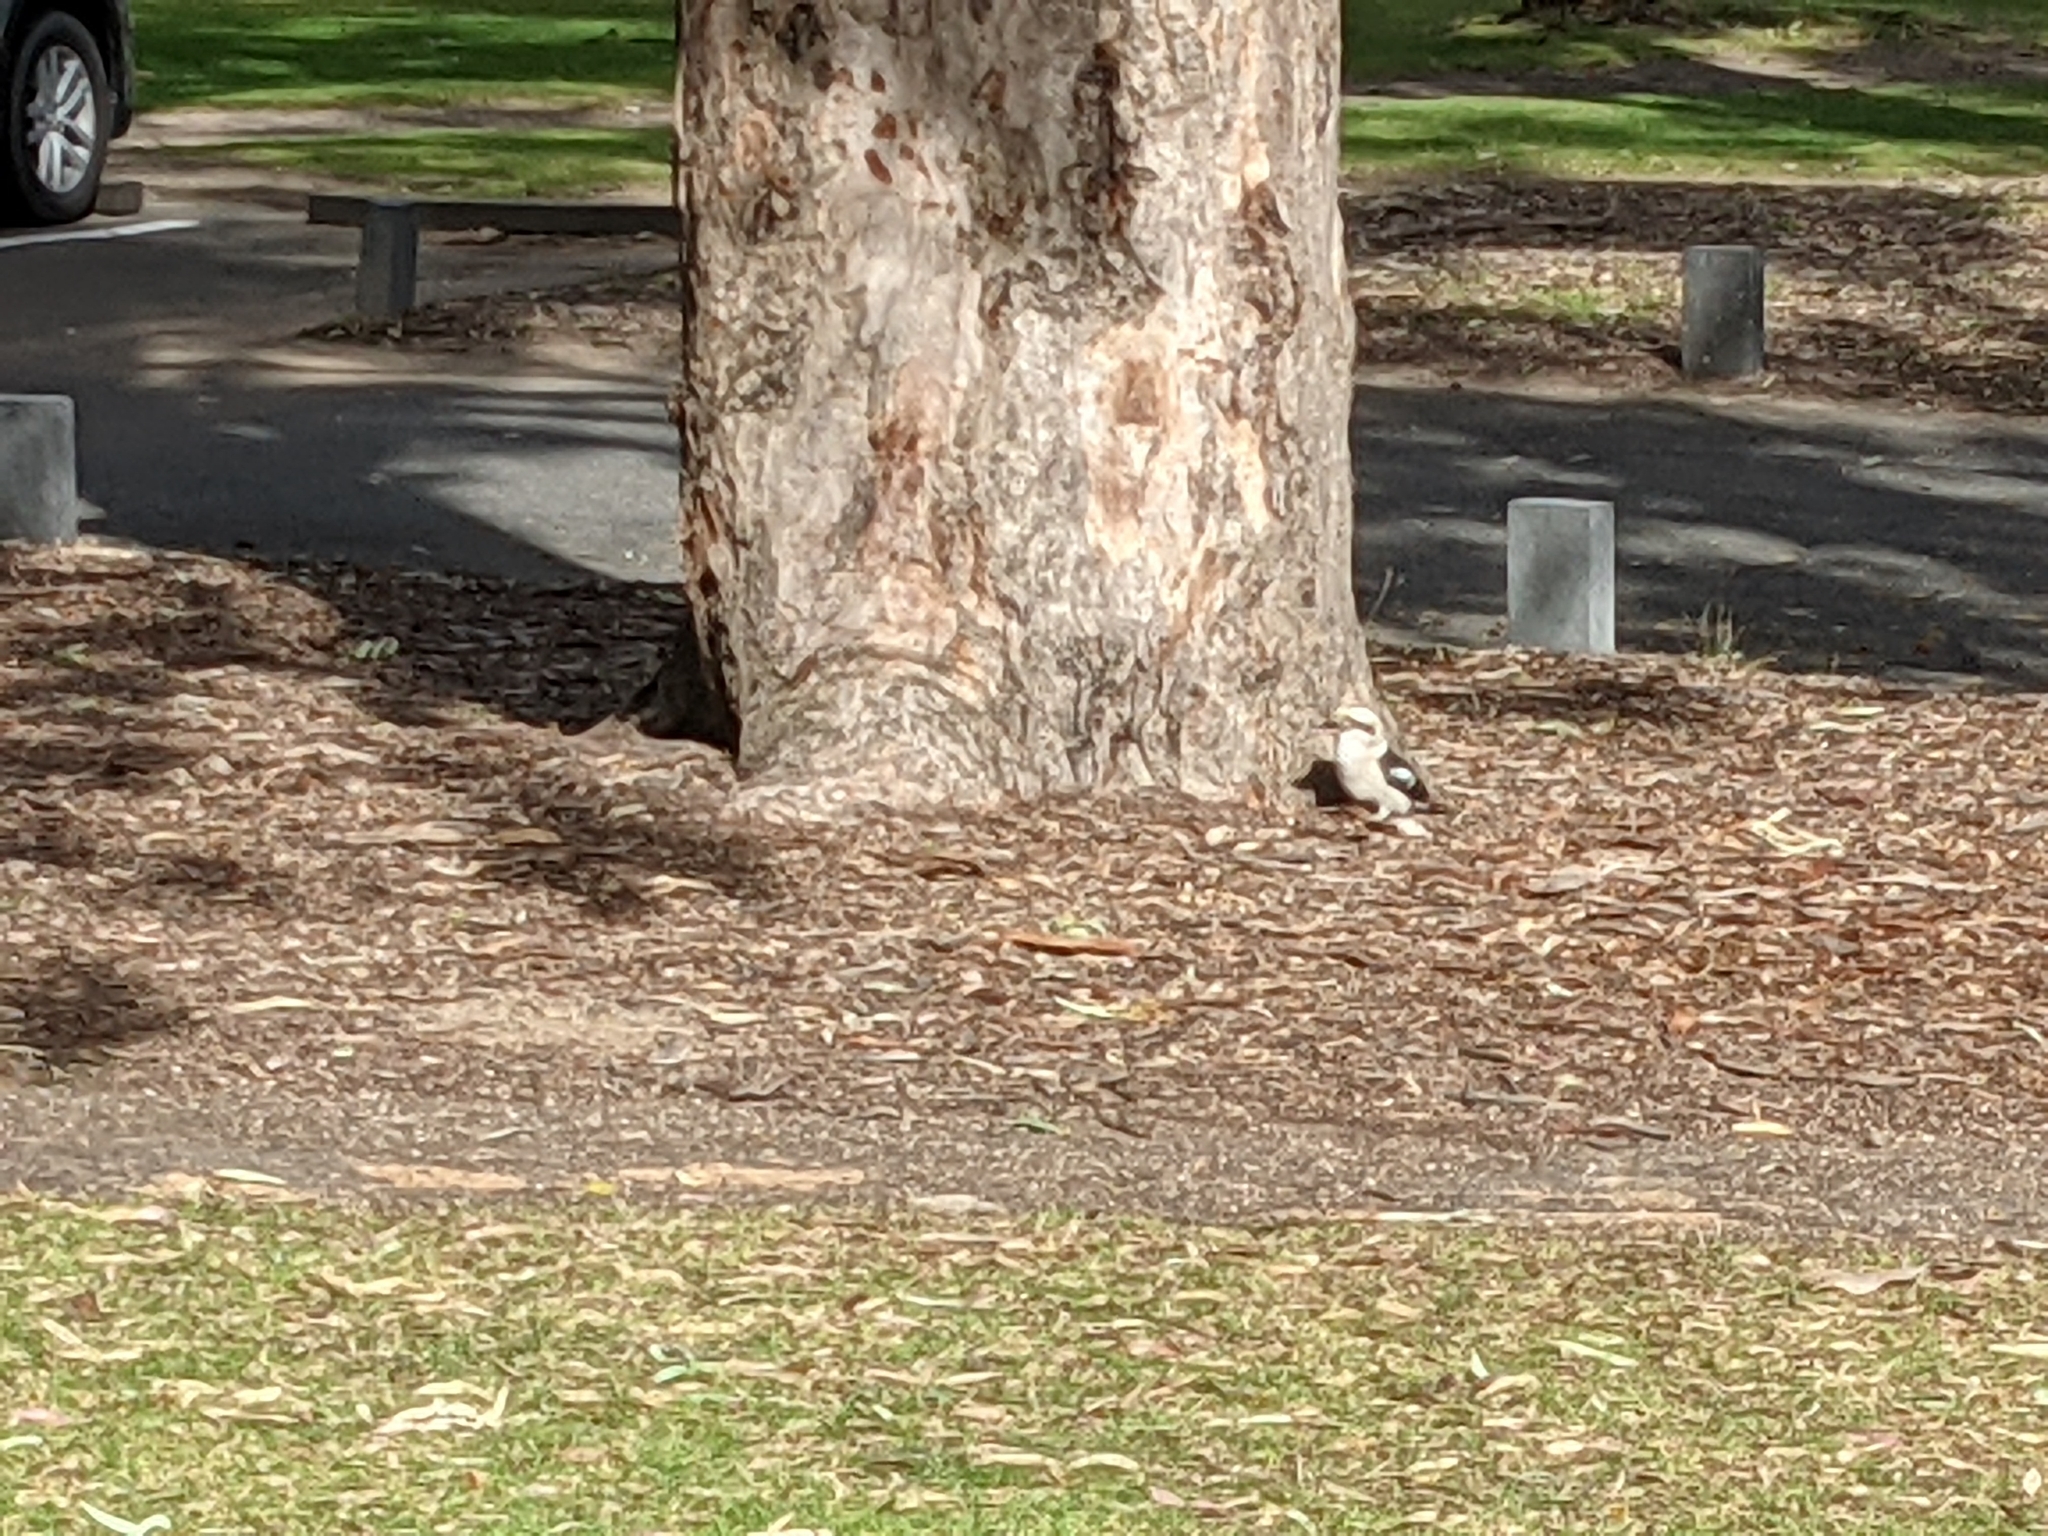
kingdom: Animalia
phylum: Chordata
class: Aves
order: Coraciiformes
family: Alcedinidae
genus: Dacelo
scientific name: Dacelo novaeguineae
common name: Laughing kookaburra
